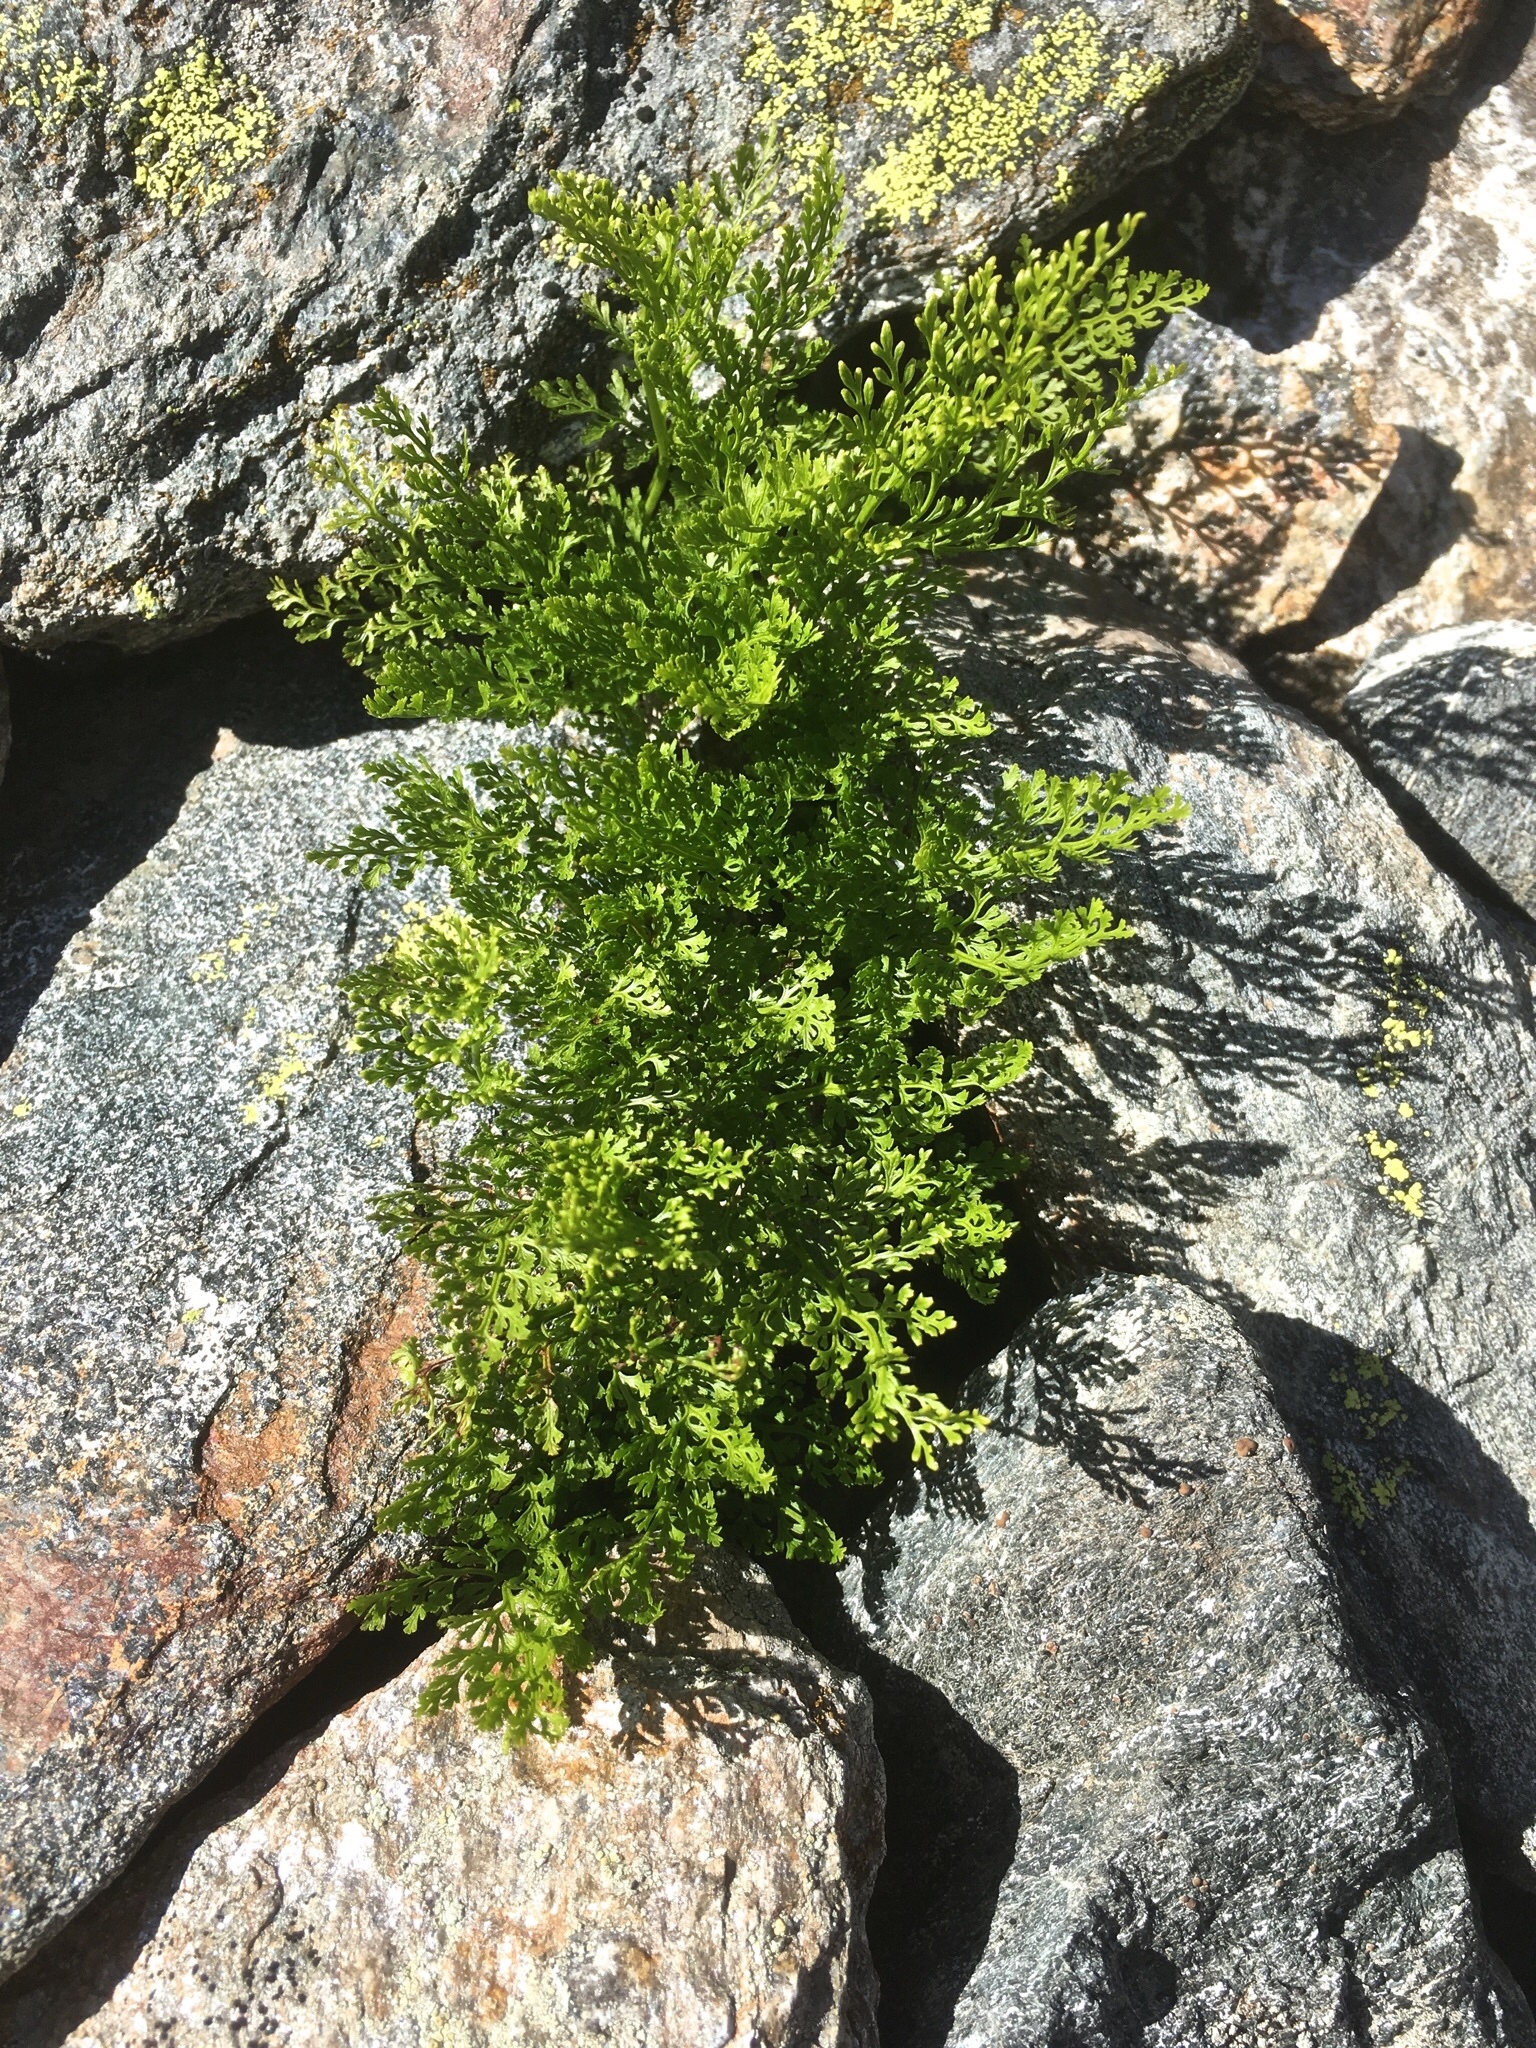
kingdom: Plantae
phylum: Tracheophyta
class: Polypodiopsida
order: Polypodiales
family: Pteridaceae
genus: Cryptogramma
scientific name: Cryptogramma crispa
